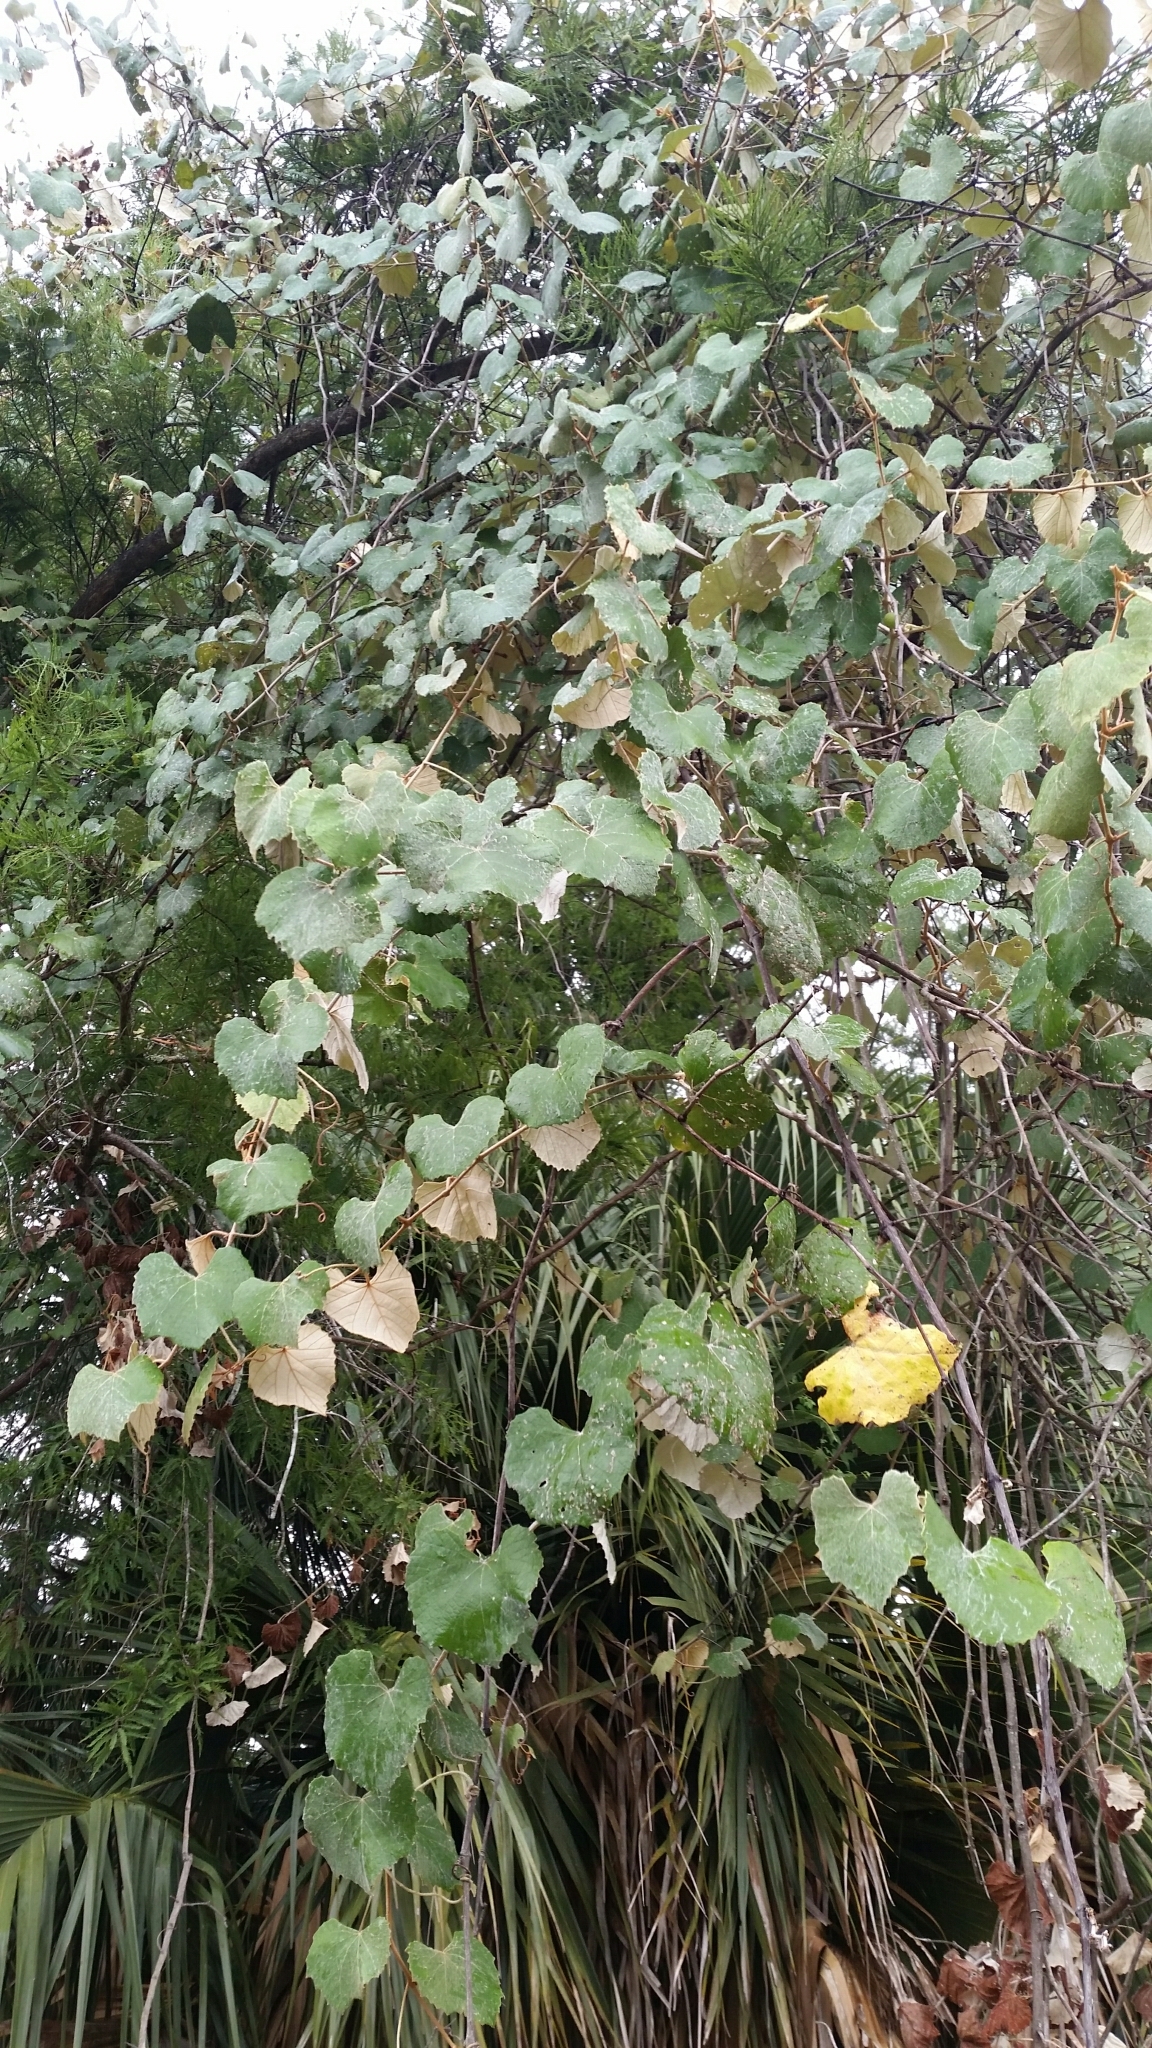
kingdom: Plantae
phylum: Tracheophyta
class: Magnoliopsida
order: Vitales
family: Vitaceae
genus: Vitis
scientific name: Vitis shuttleworthii
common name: Caloosa grape
